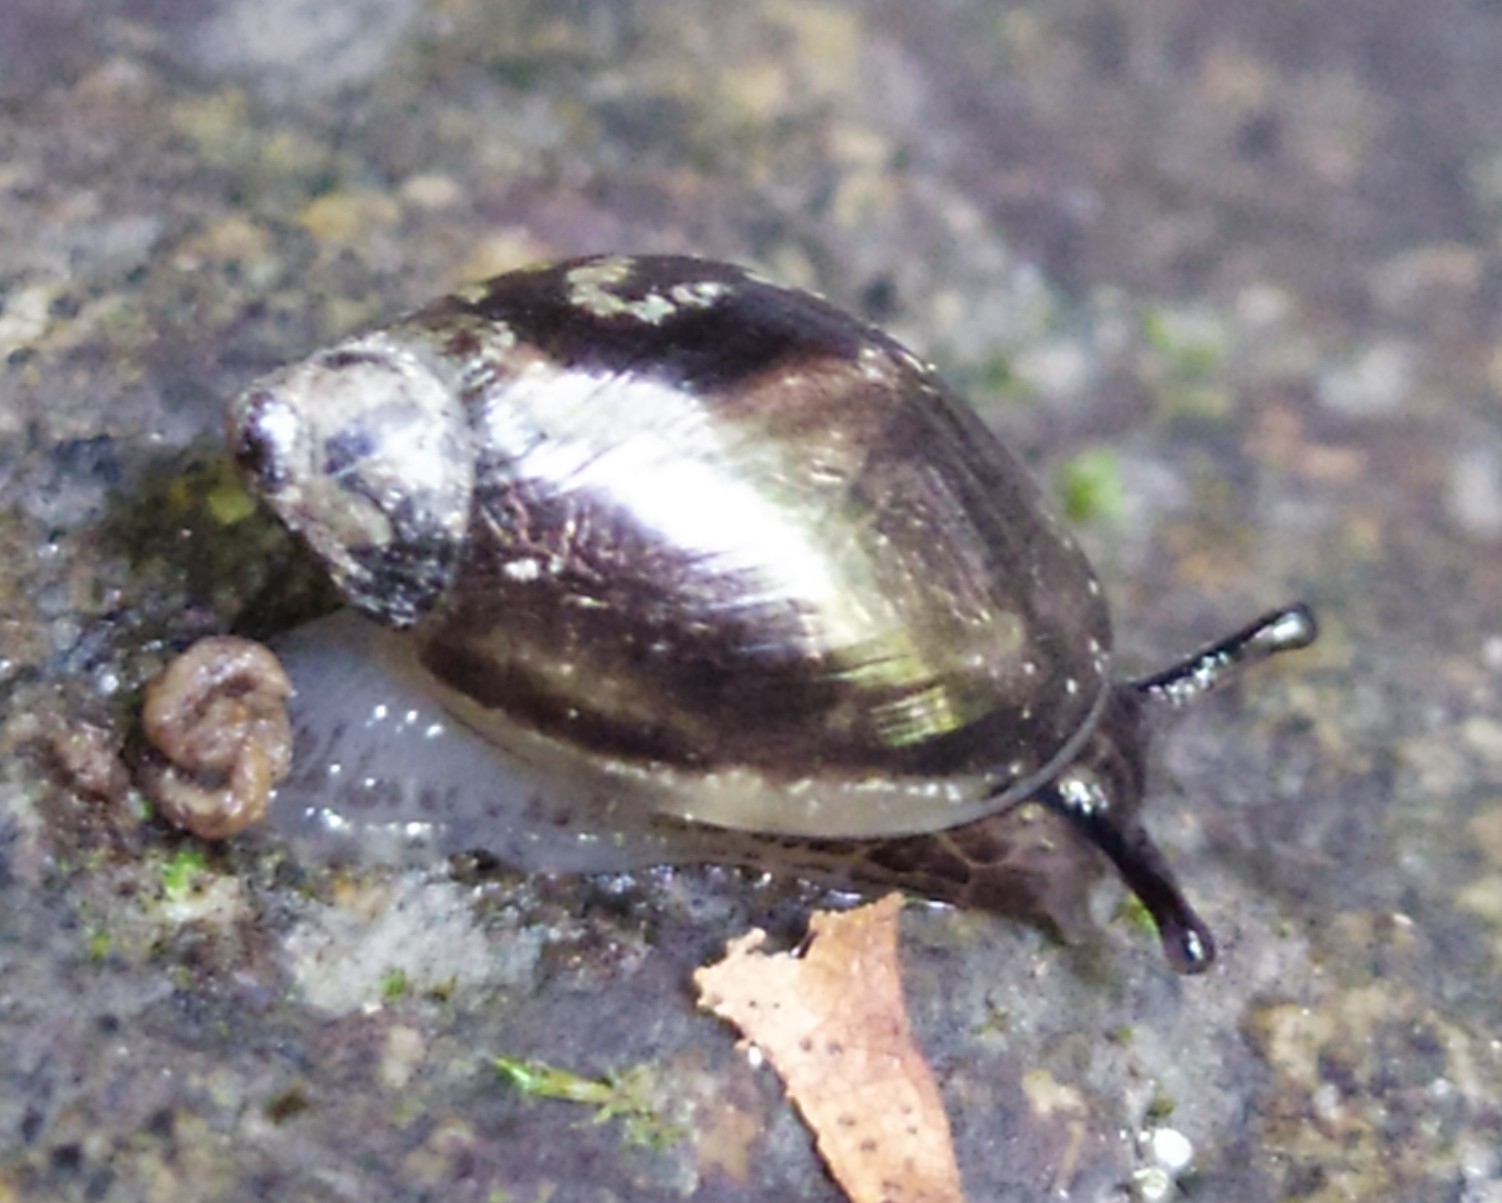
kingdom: Animalia
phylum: Mollusca
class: Gastropoda
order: Stylommatophora
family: Succineidae
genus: Succinea
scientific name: Succinea putris
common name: European ambersnail
